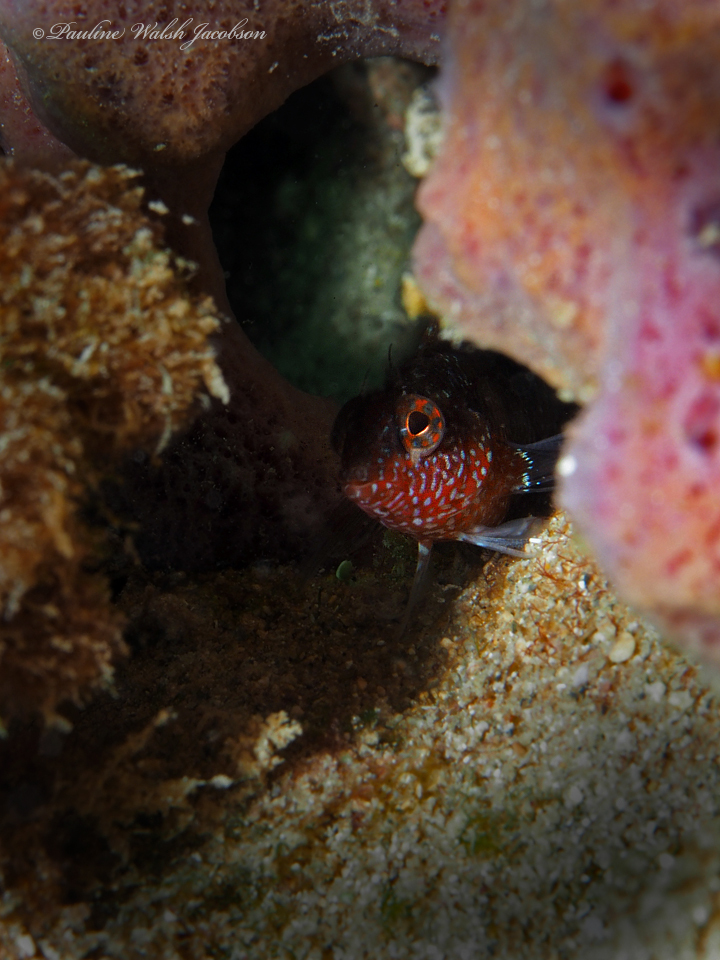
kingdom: Animalia
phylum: Chordata
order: Perciformes
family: Labrisomidae
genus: Malacoctenus
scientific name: Malacoctenus macropus
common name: Rosy blenny
